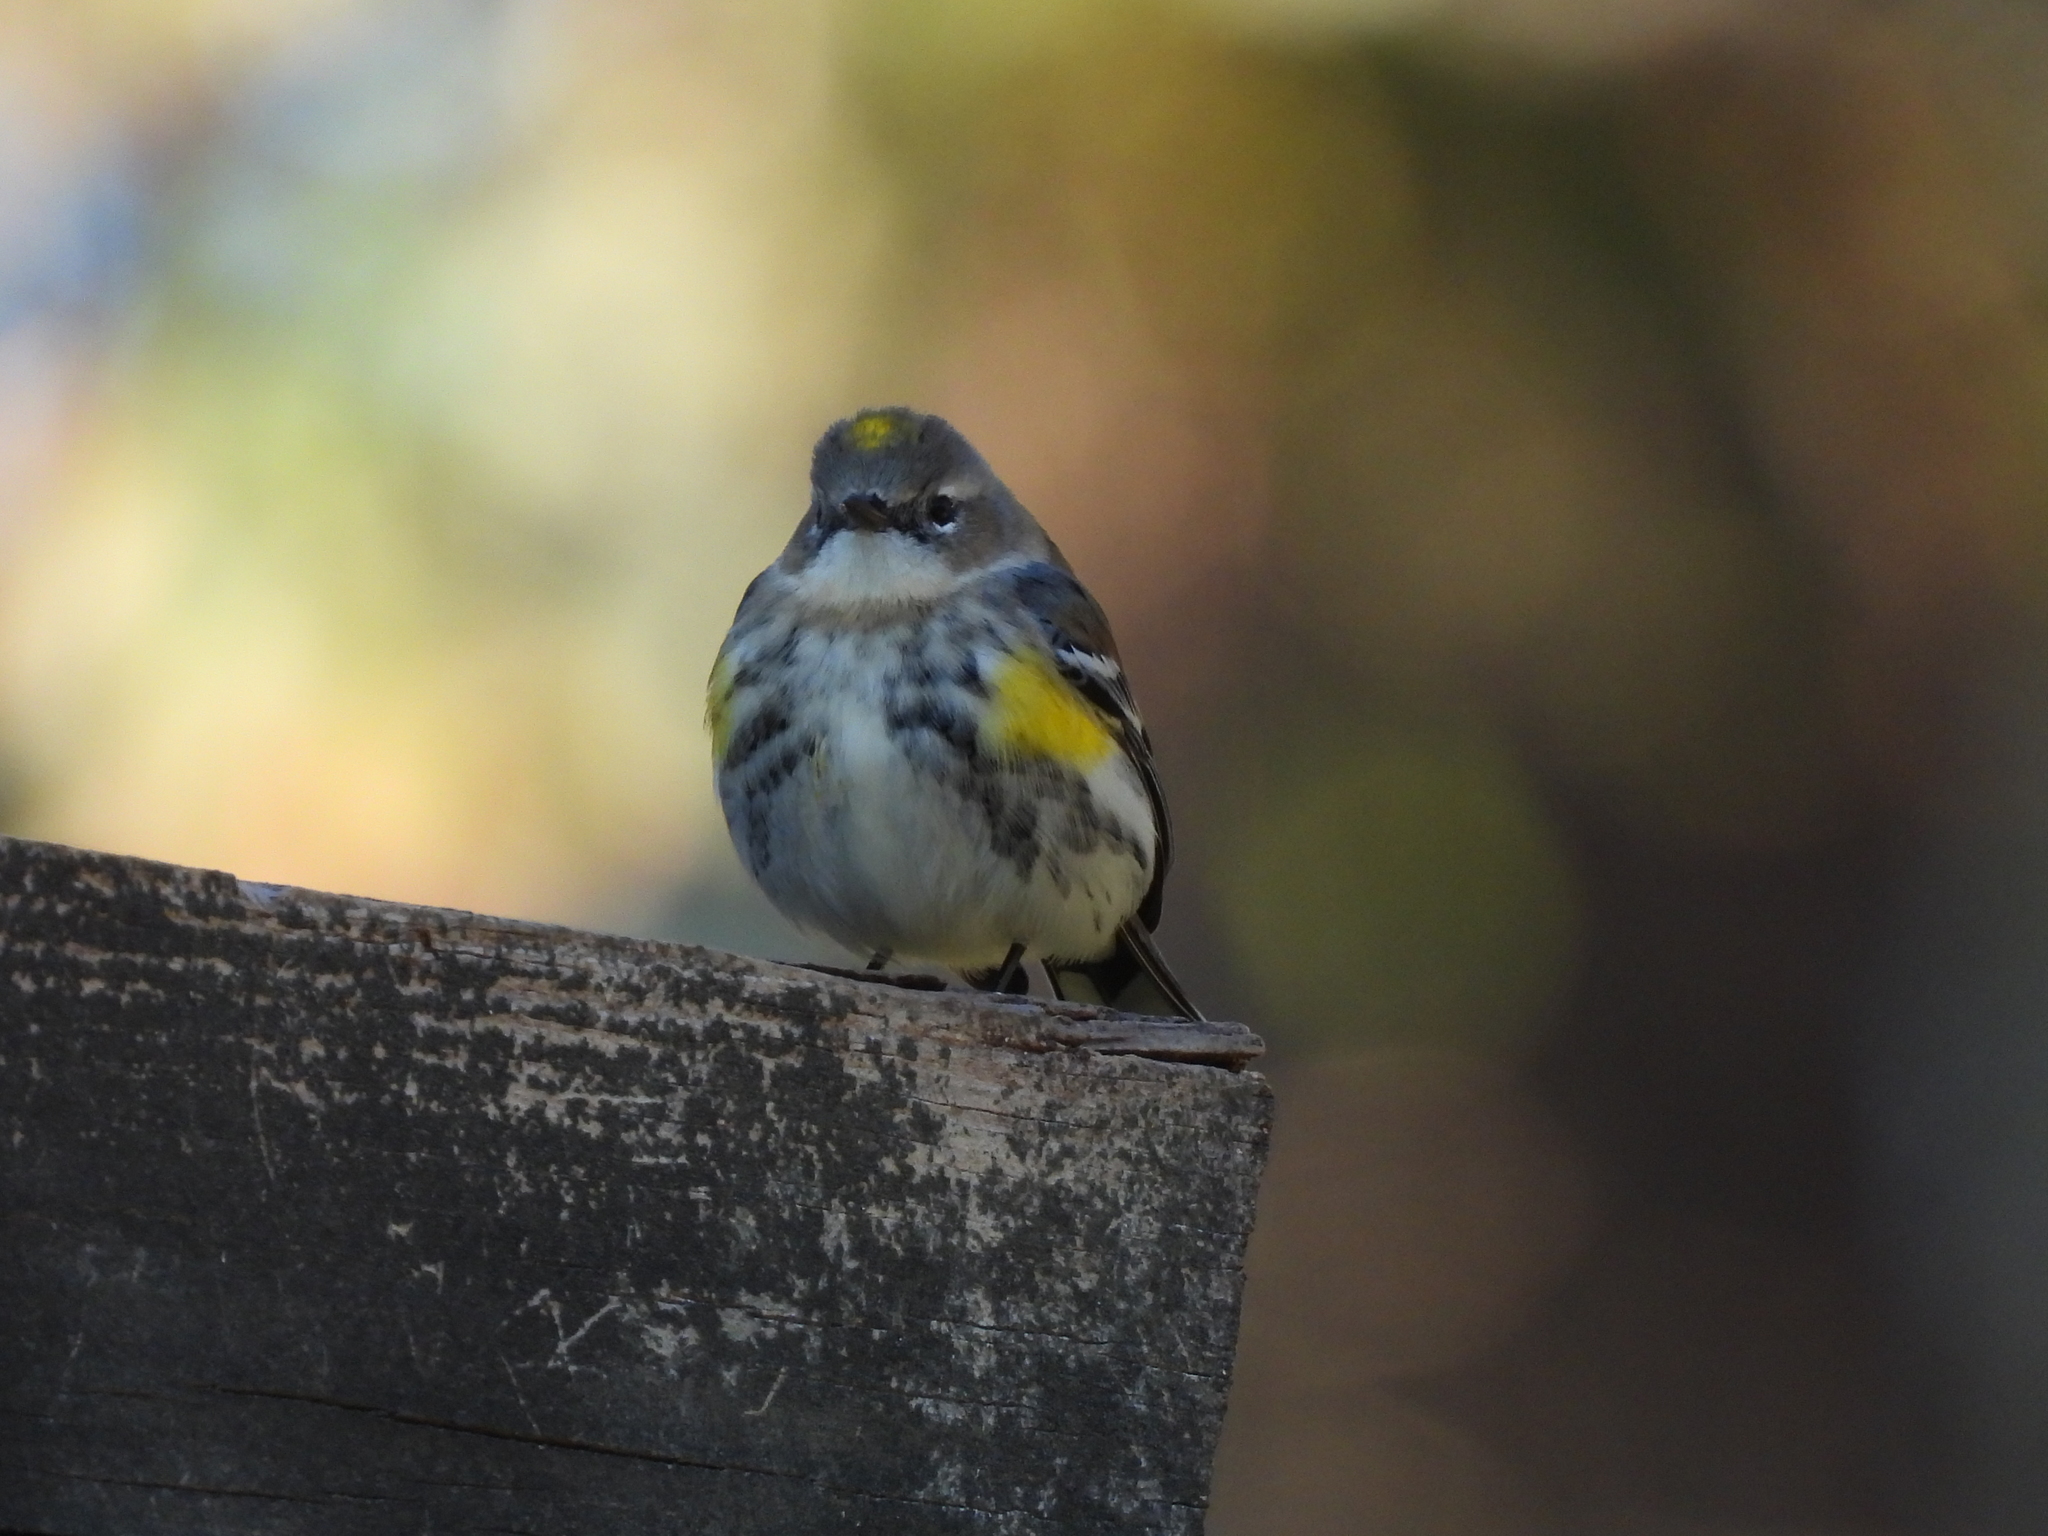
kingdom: Animalia
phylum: Chordata
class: Aves
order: Passeriformes
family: Parulidae
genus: Setophaga
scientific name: Setophaga coronata
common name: Myrtle warbler
